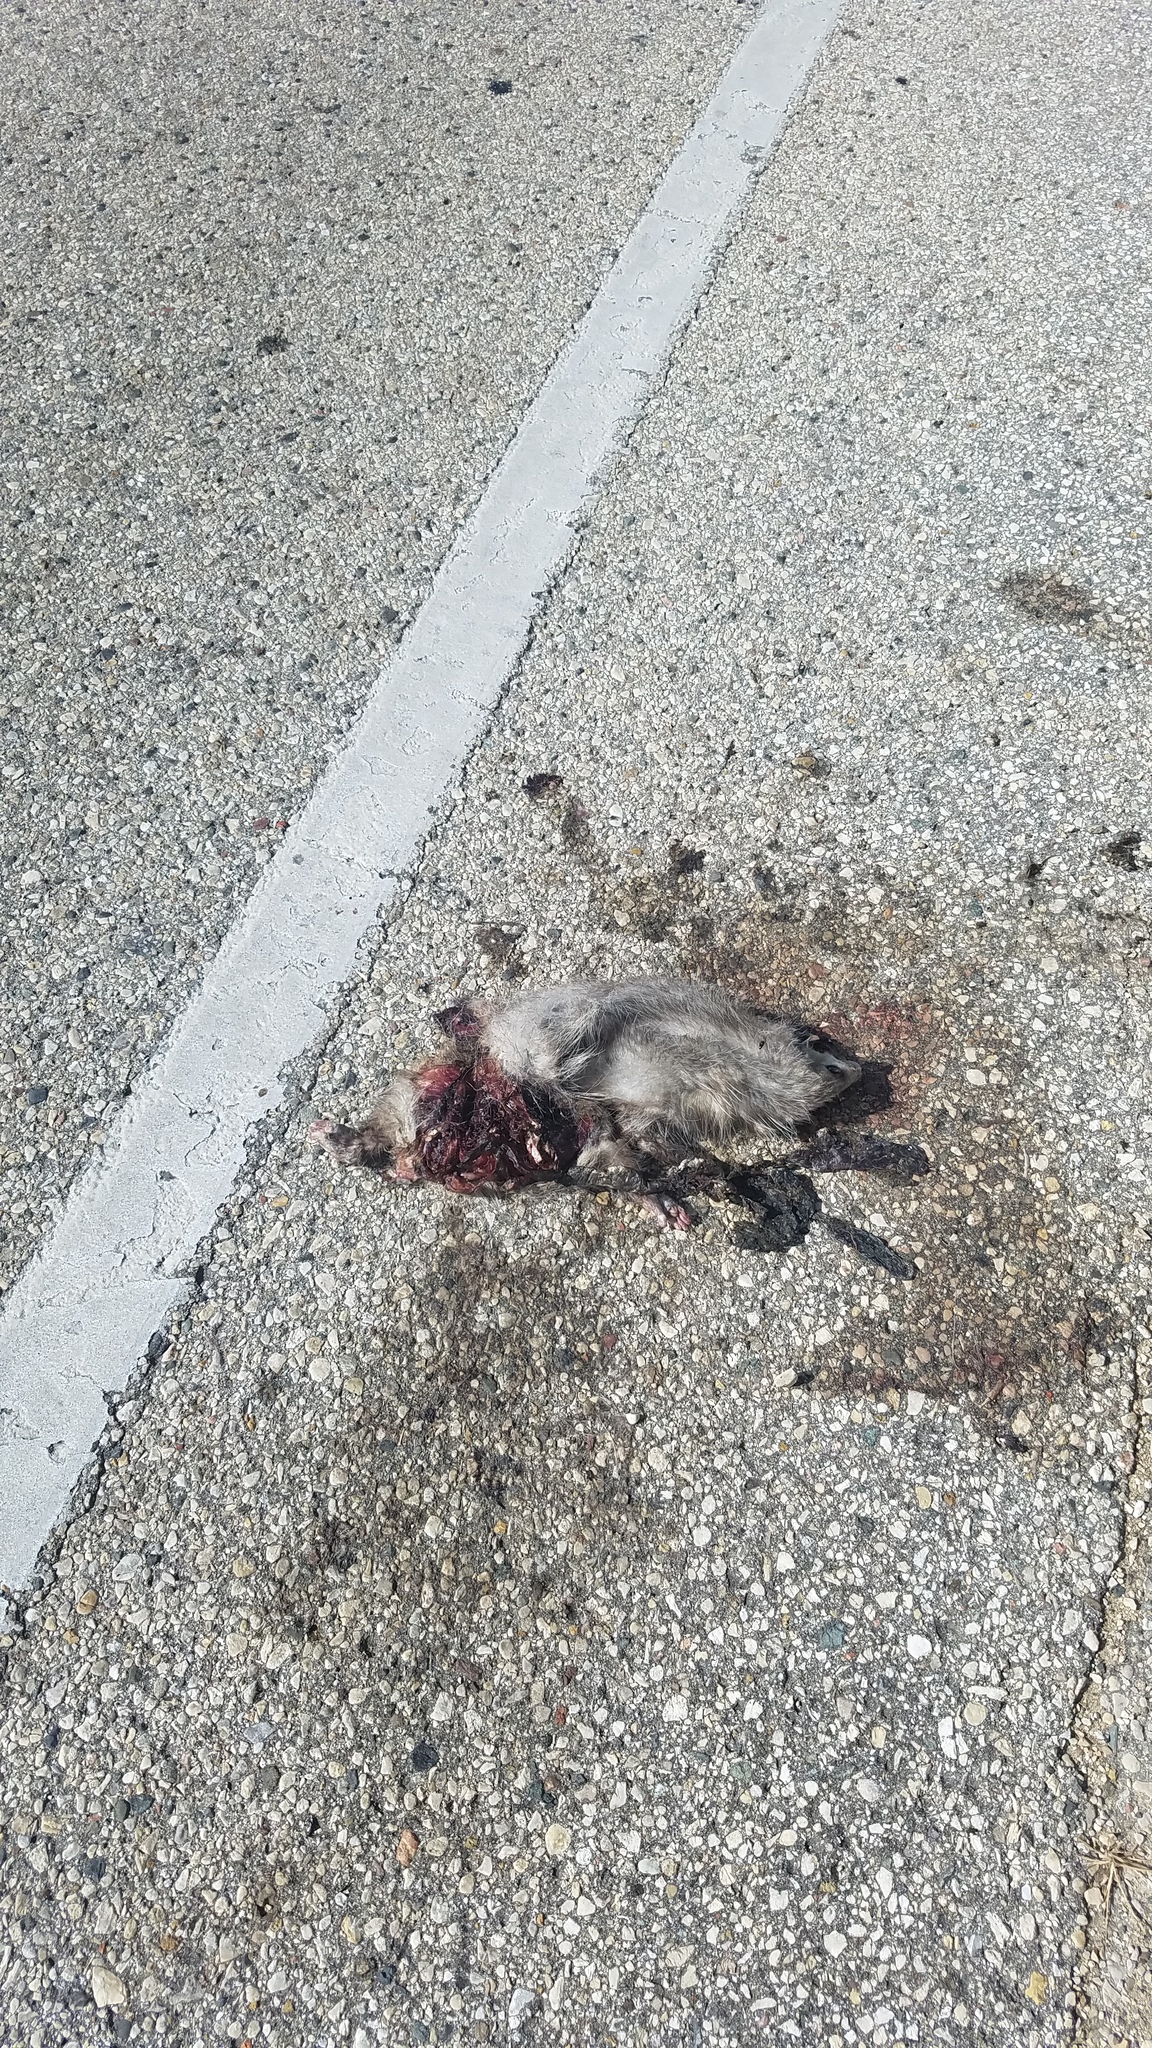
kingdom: Animalia
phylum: Chordata
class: Mammalia
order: Didelphimorphia
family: Didelphidae
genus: Didelphis
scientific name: Didelphis virginiana
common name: Virginia opossum
